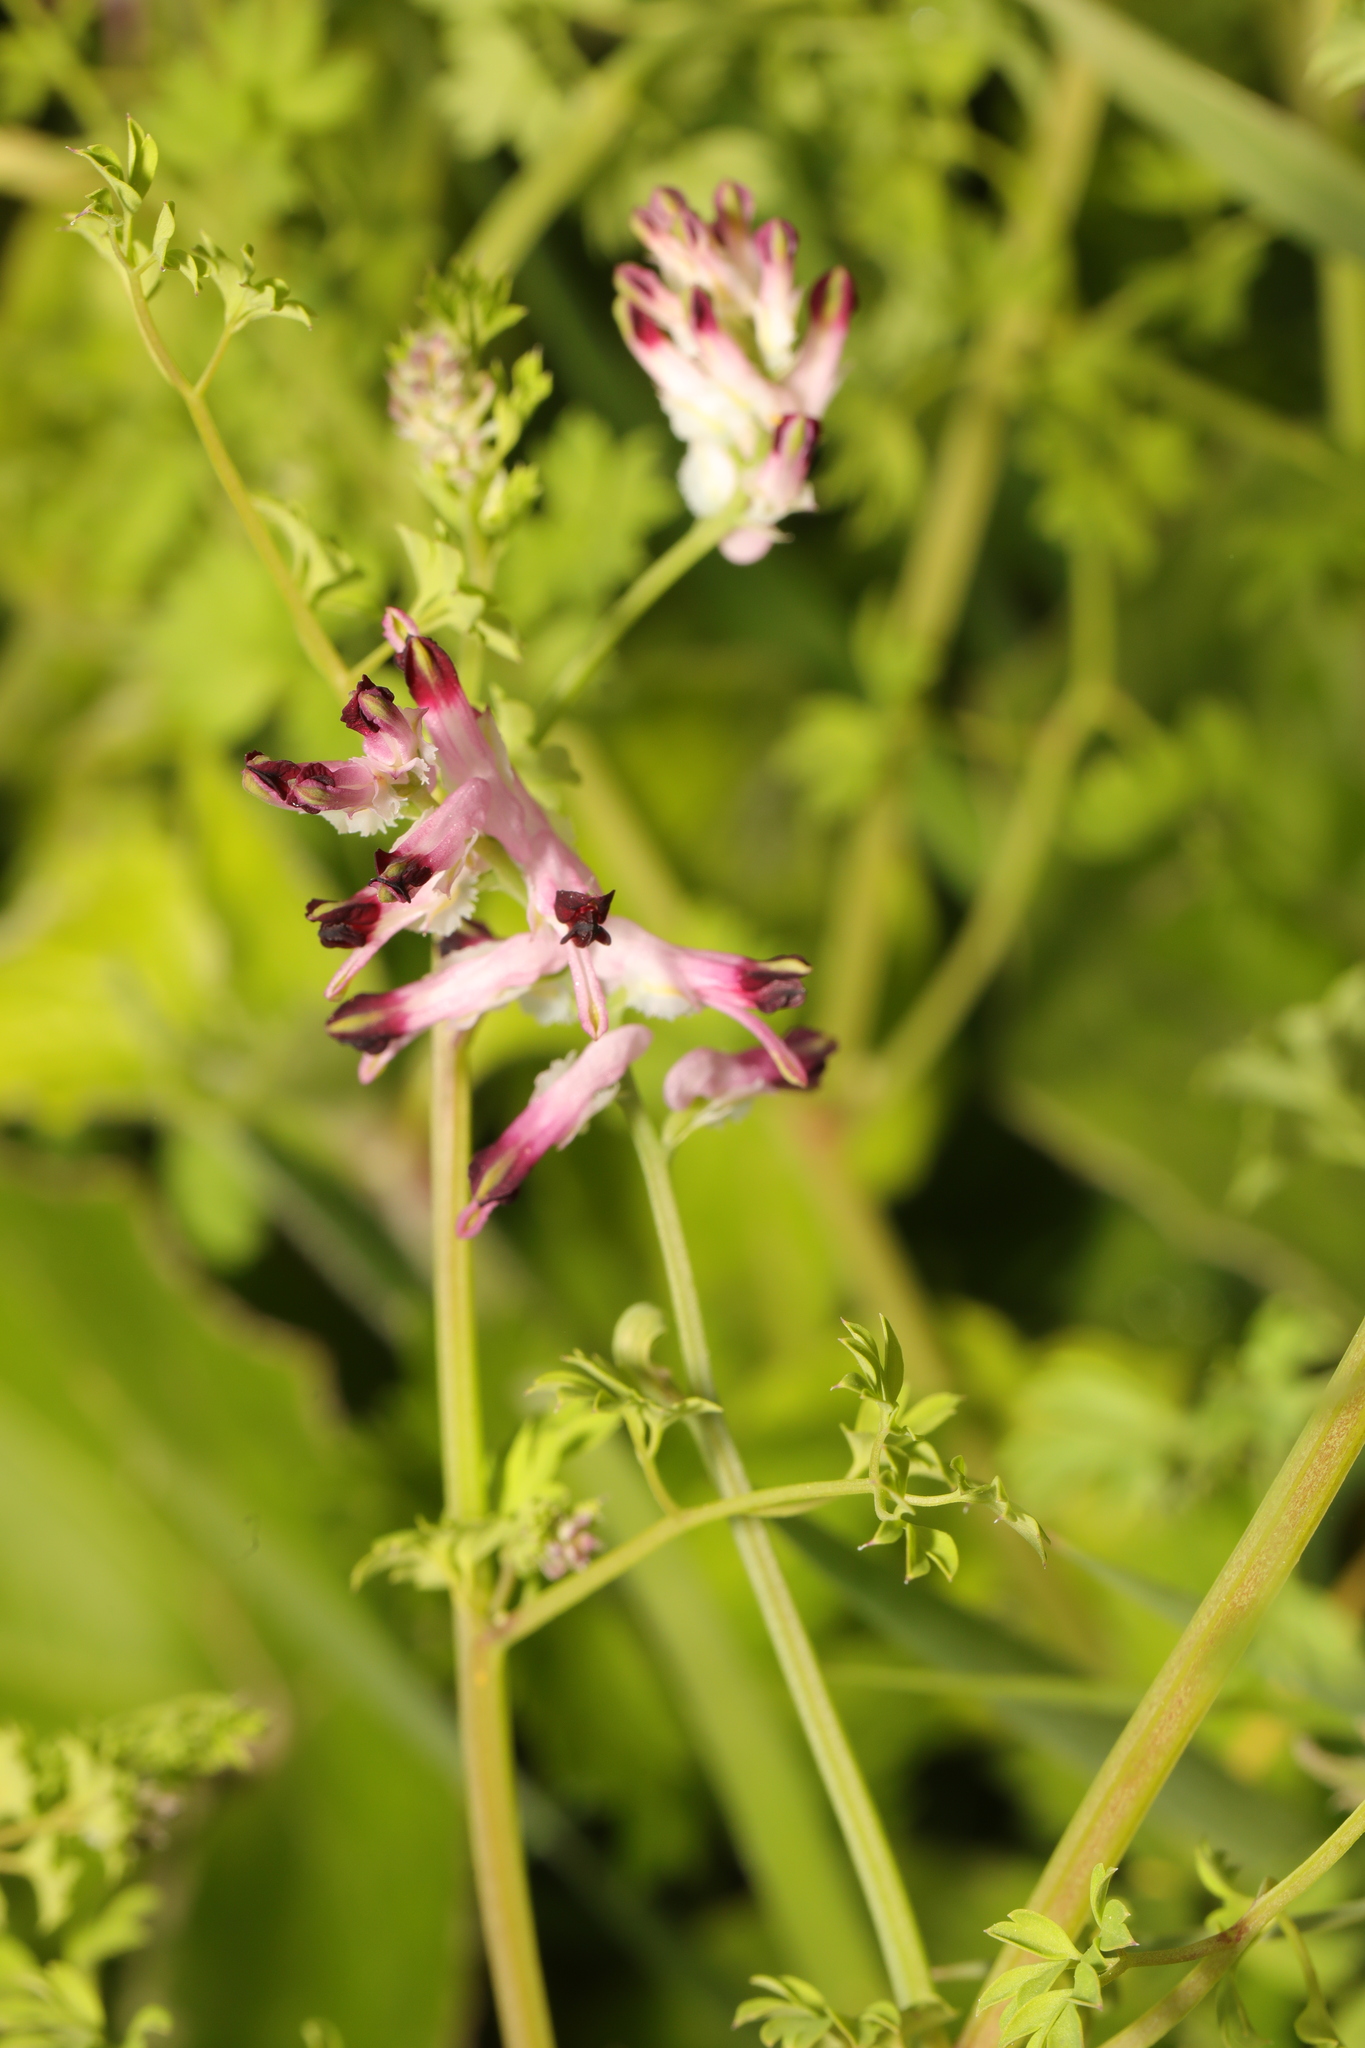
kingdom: Plantae
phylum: Tracheophyta
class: Magnoliopsida
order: Ranunculales
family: Papaveraceae
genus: Fumaria
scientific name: Fumaria muralis
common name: Common ramping-fumitory
